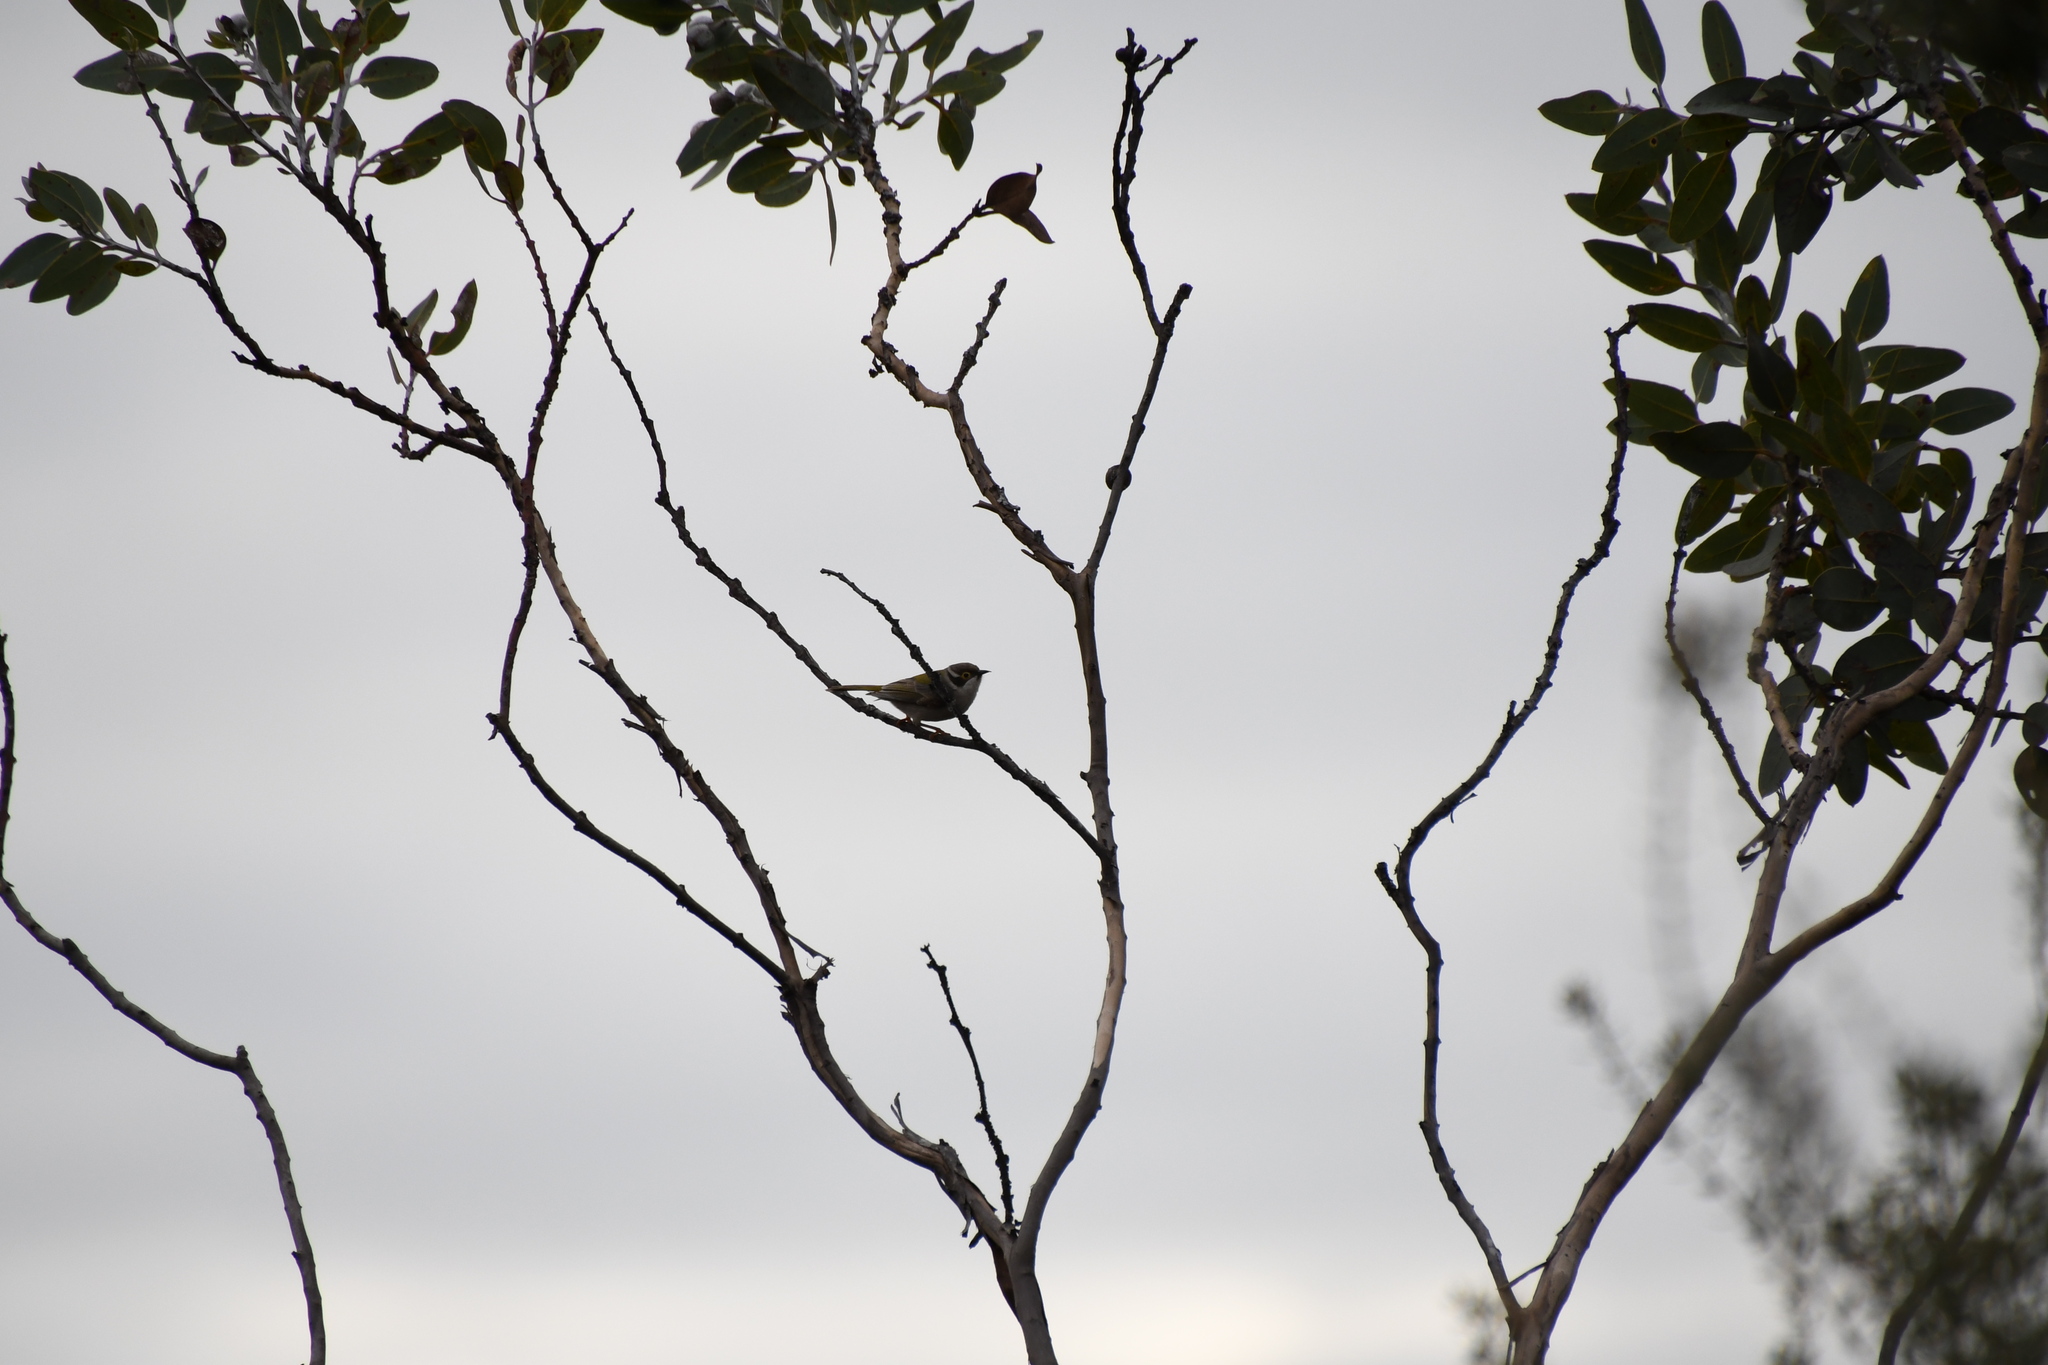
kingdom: Animalia
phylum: Chordata
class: Aves
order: Passeriformes
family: Meliphagidae
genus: Melithreptus
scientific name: Melithreptus brevirostris
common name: Brown-headed honeyeater
